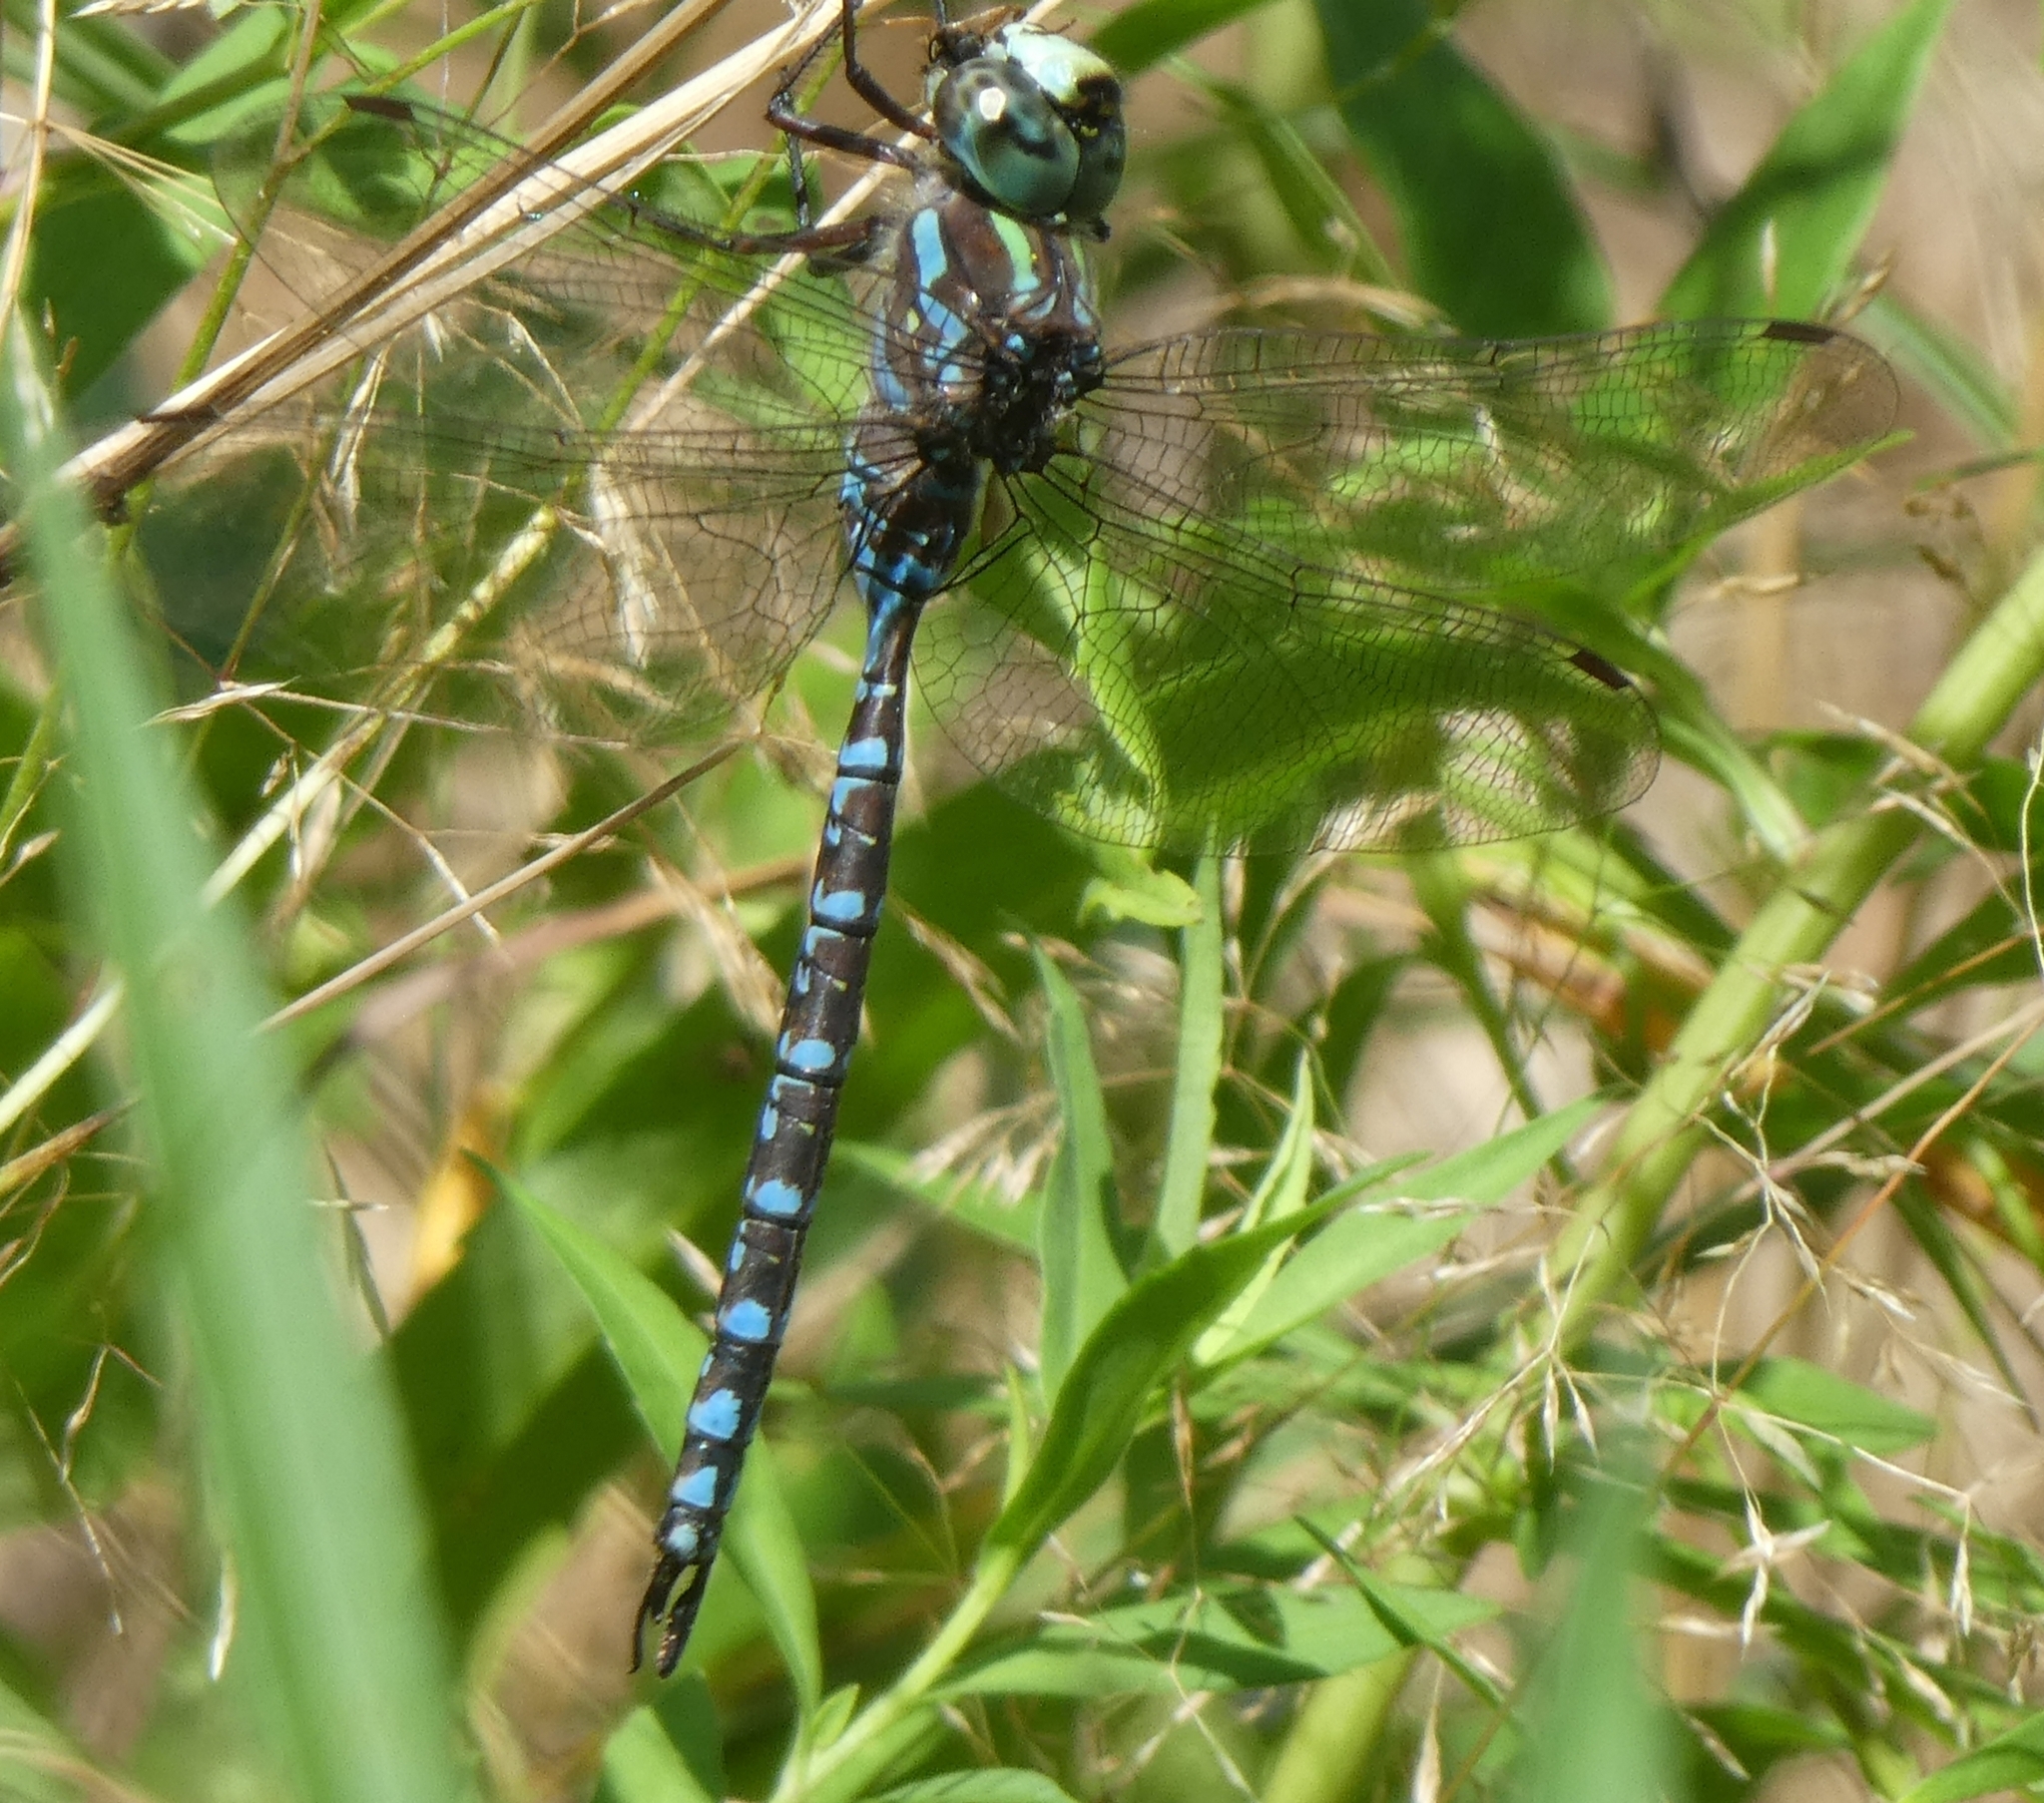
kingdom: Animalia
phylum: Arthropoda
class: Insecta
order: Odonata
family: Aeshnidae
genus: Aeshna
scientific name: Aeshna canadensis
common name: Canada darner
